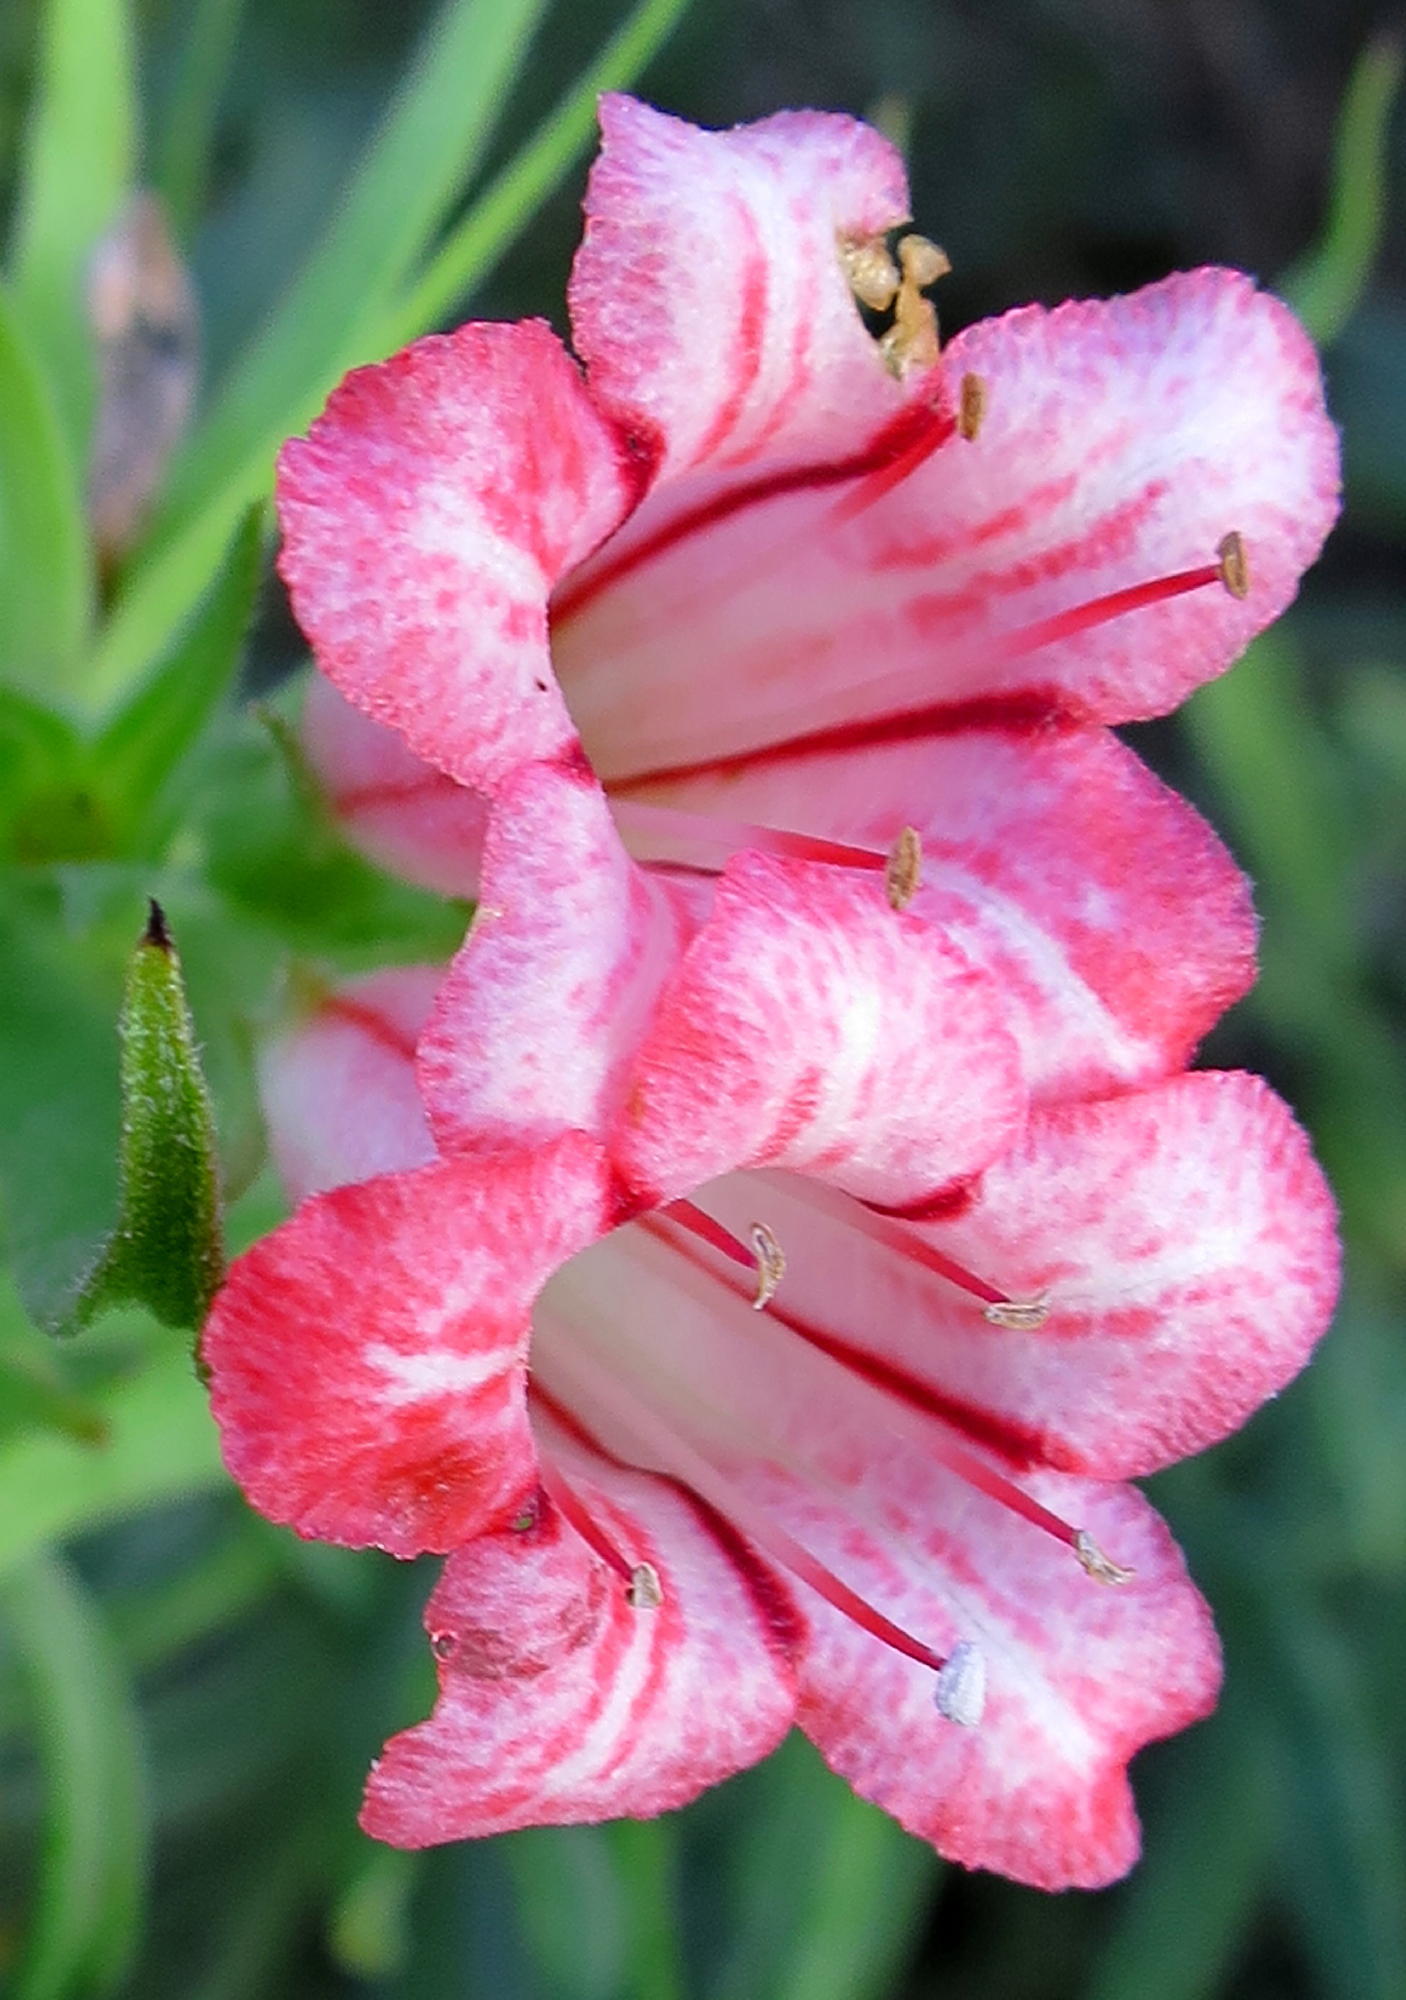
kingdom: Plantae
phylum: Tracheophyta
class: Magnoliopsida
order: Boraginales
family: Boraginaceae
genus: Lobostemon
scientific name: Lobostemon belliformis
